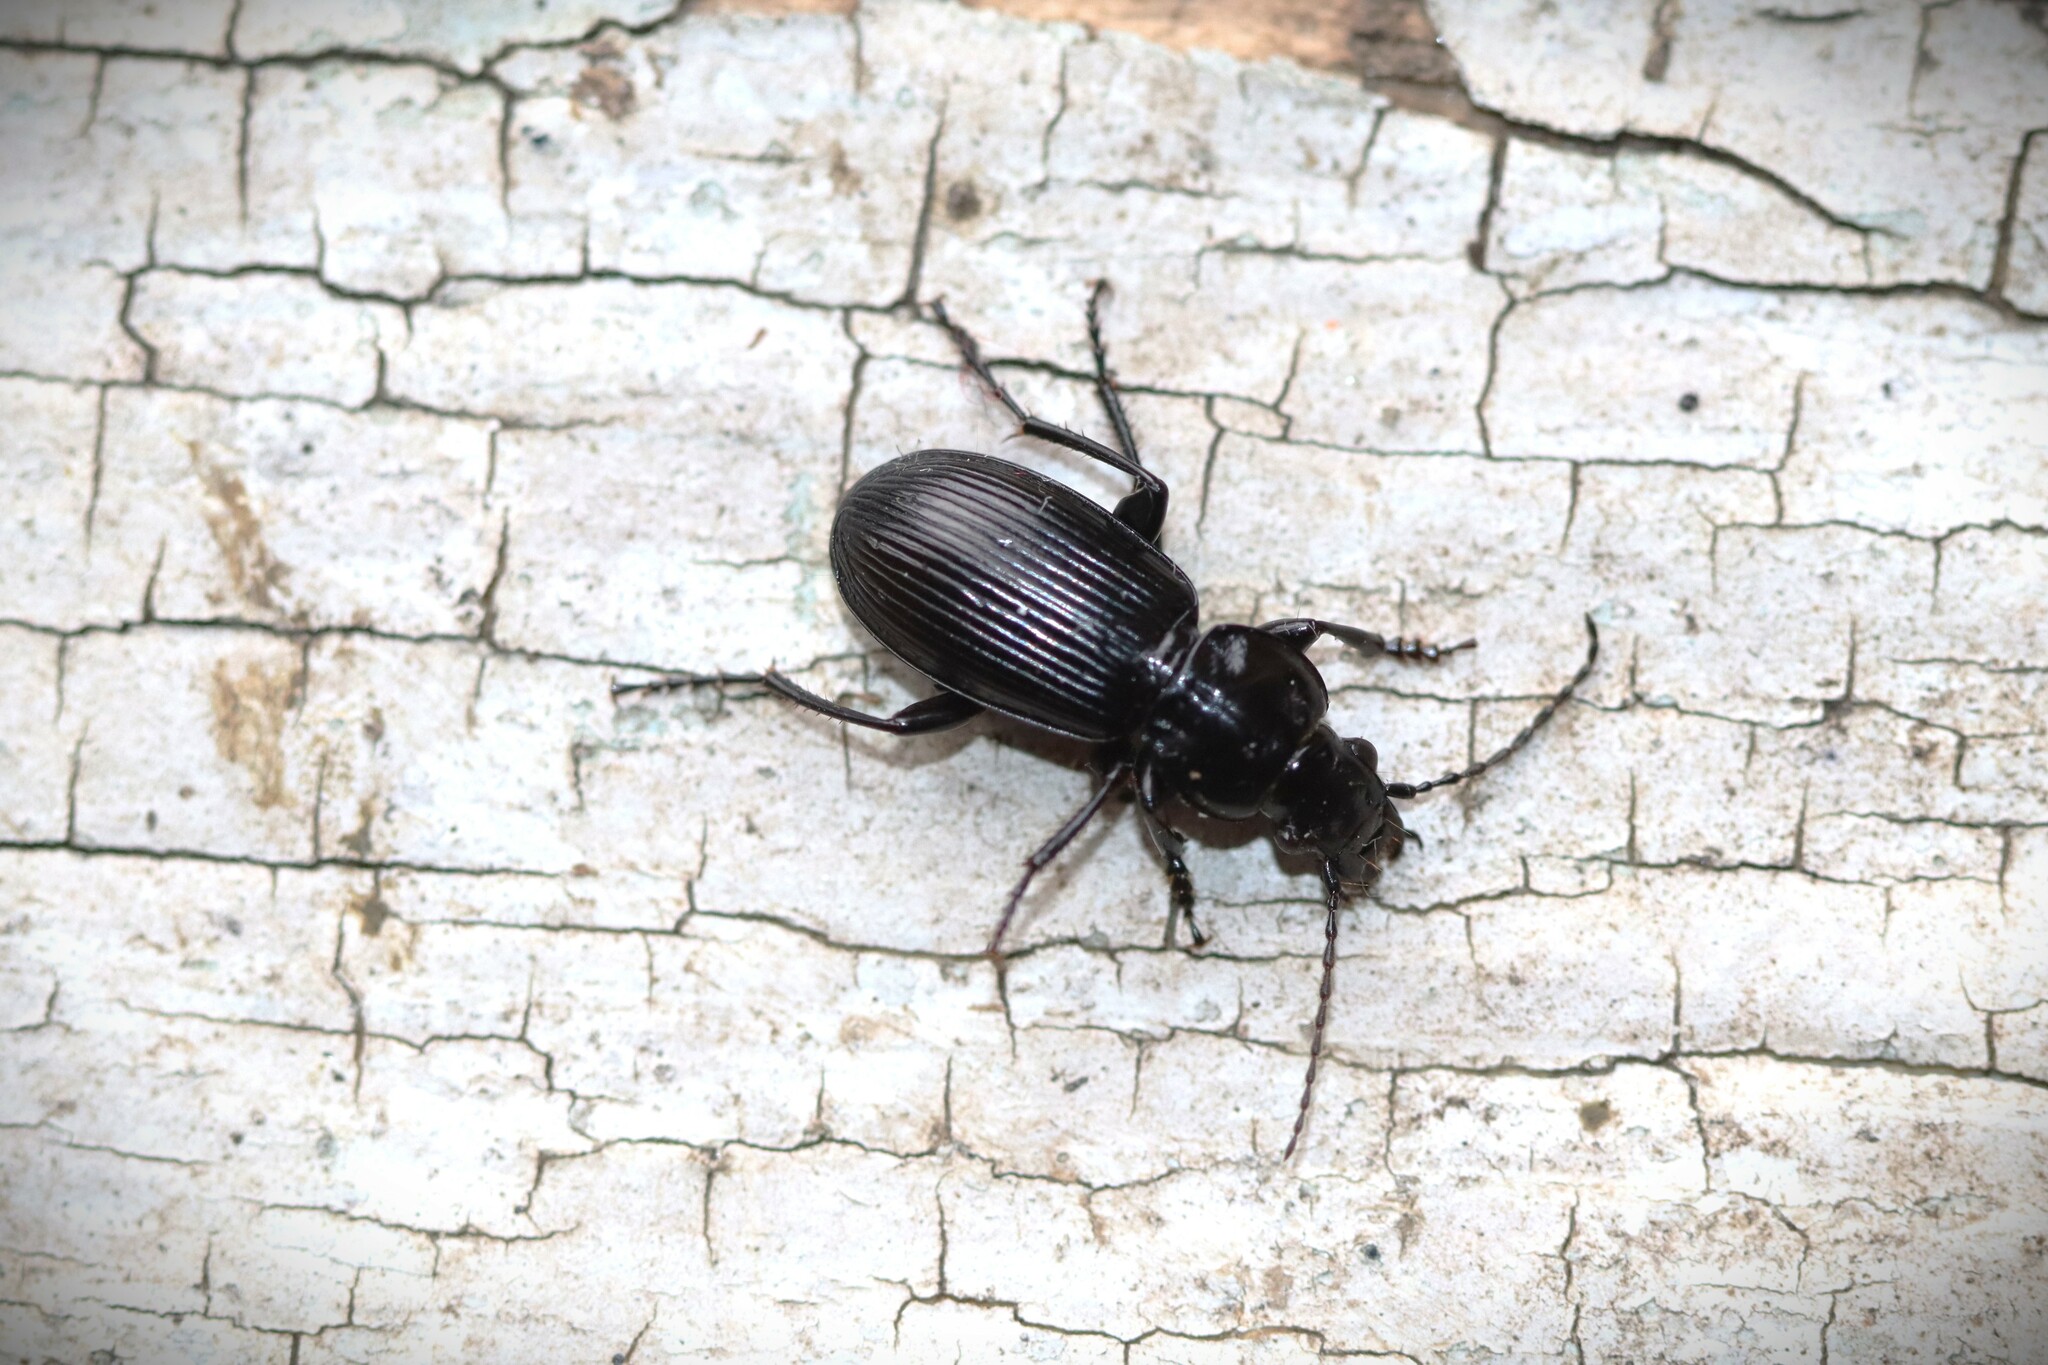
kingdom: Animalia
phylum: Arthropoda
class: Insecta
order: Coleoptera
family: Carabidae
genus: Pterostichus
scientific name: Pterostichus aethiops
